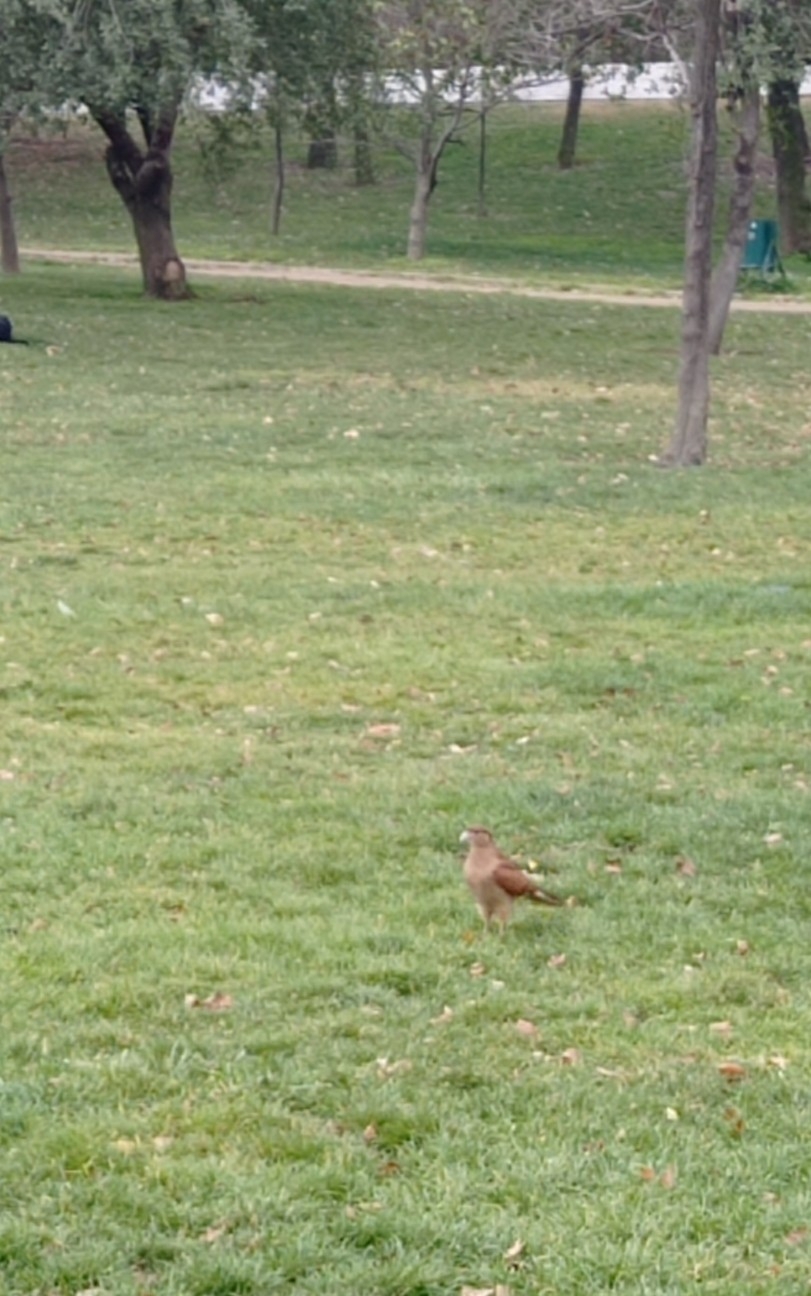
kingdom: Animalia
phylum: Chordata
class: Aves
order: Falconiformes
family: Falconidae
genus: Daptrius
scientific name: Daptrius
